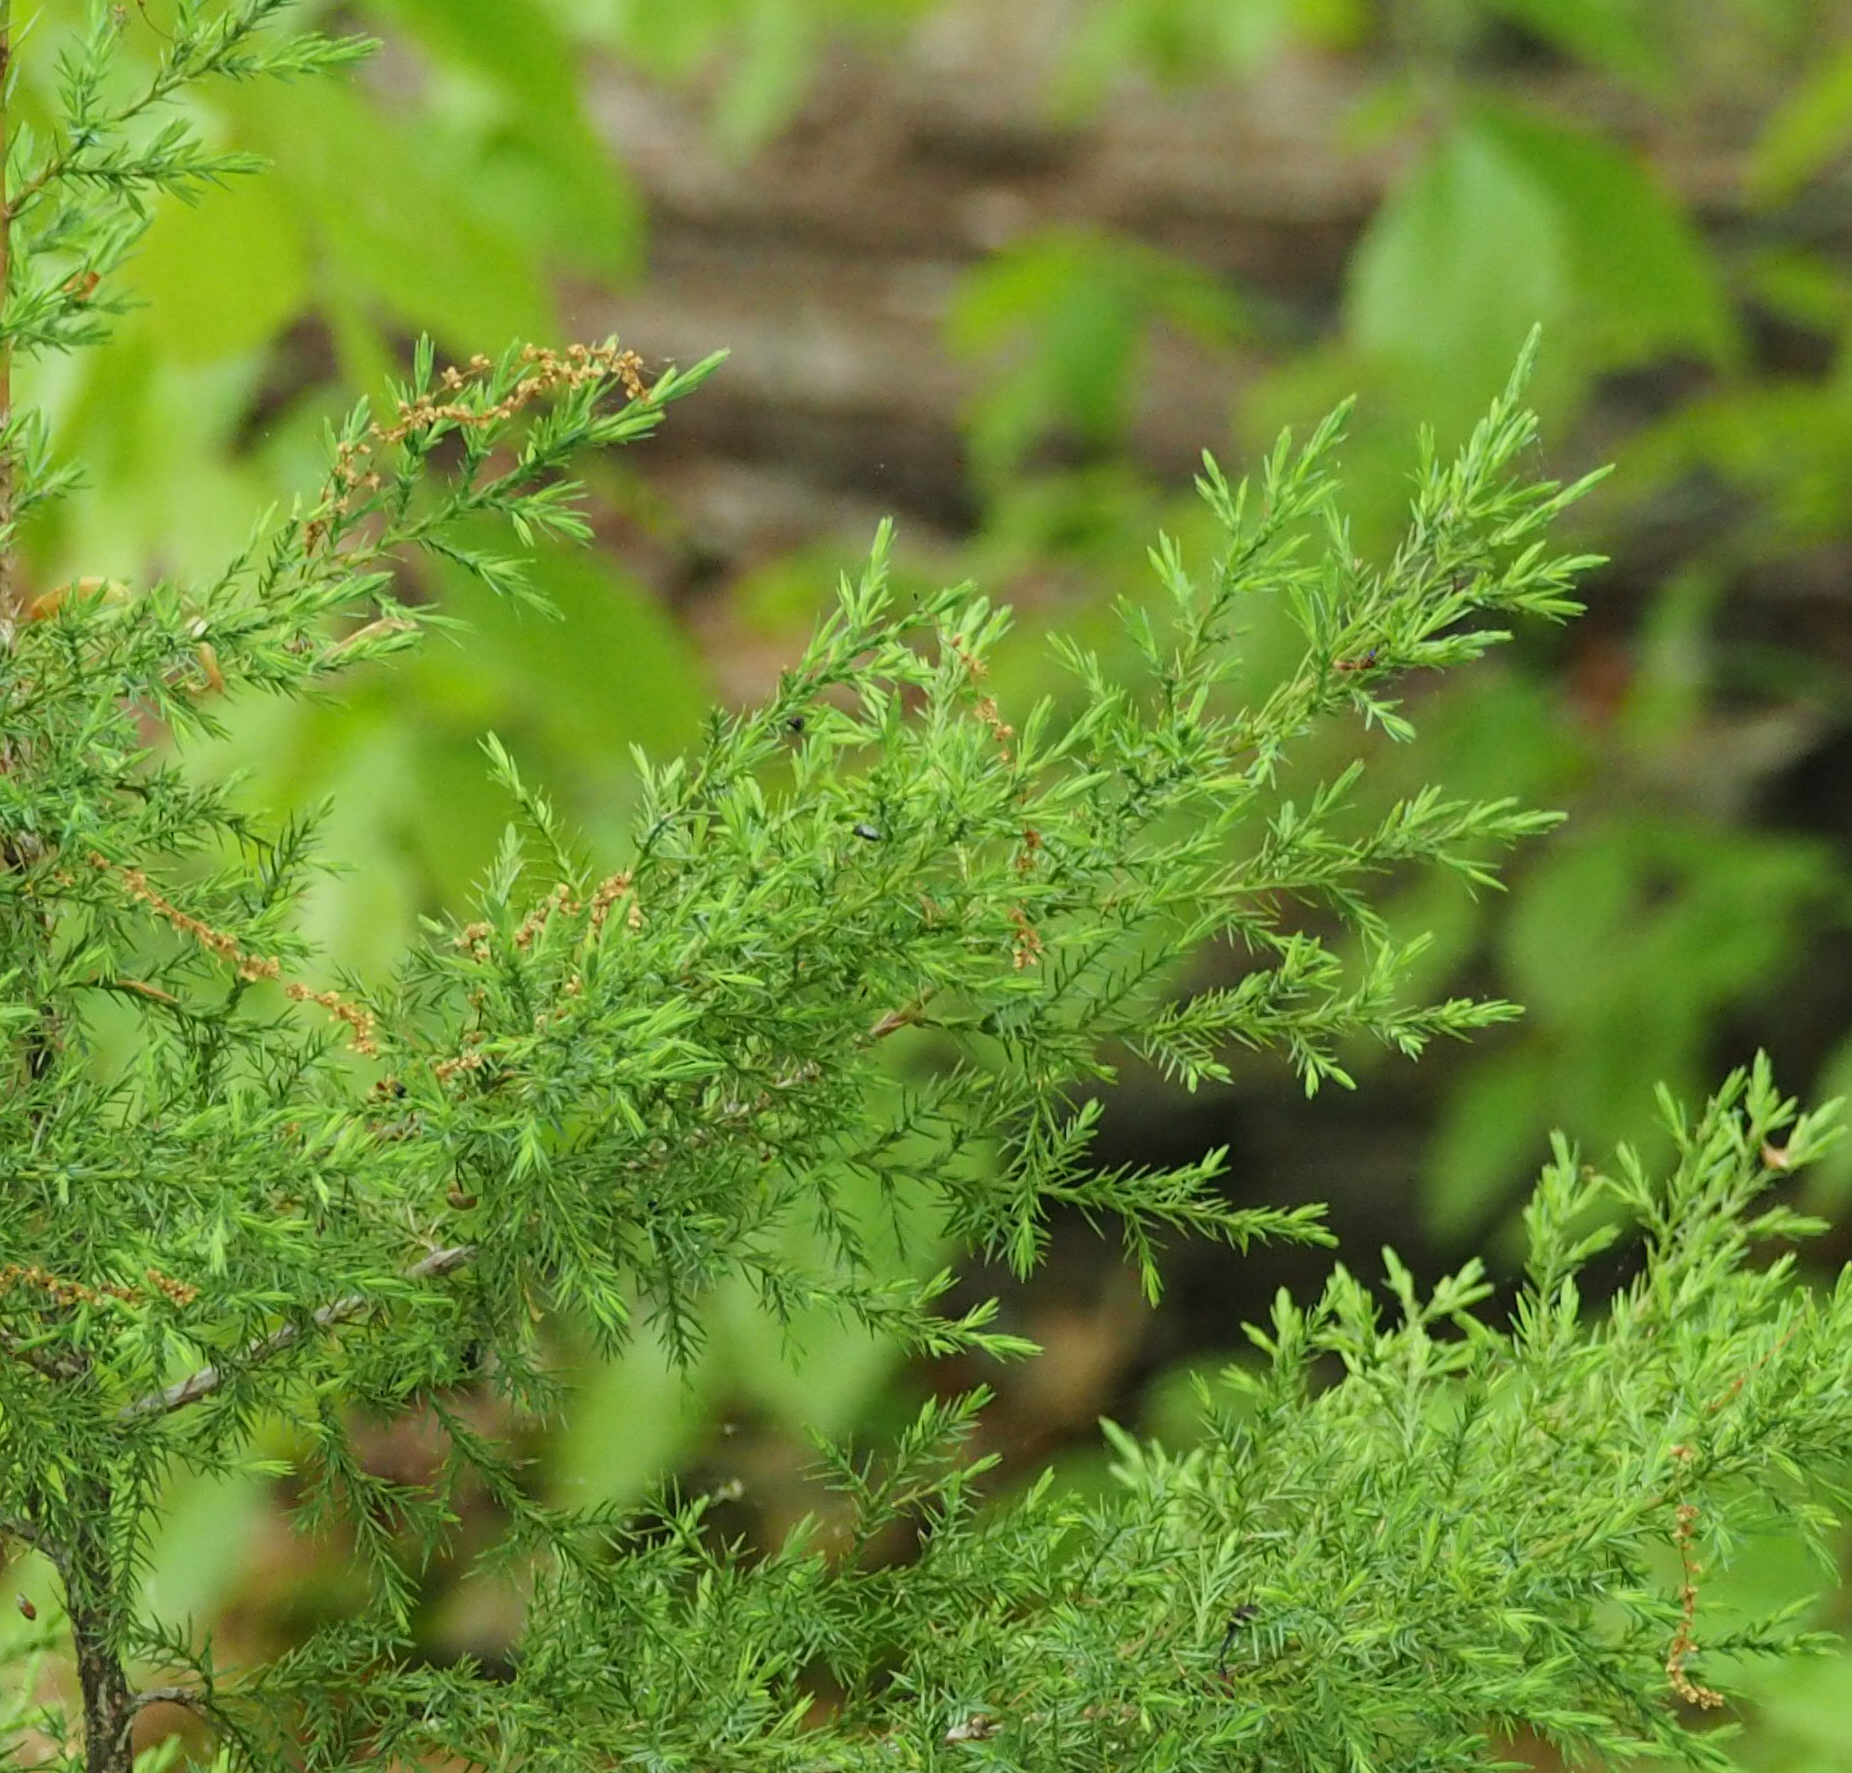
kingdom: Plantae
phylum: Tracheophyta
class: Pinopsida
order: Pinales
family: Cupressaceae
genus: Juniperus
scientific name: Juniperus virginiana
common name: Red juniper
